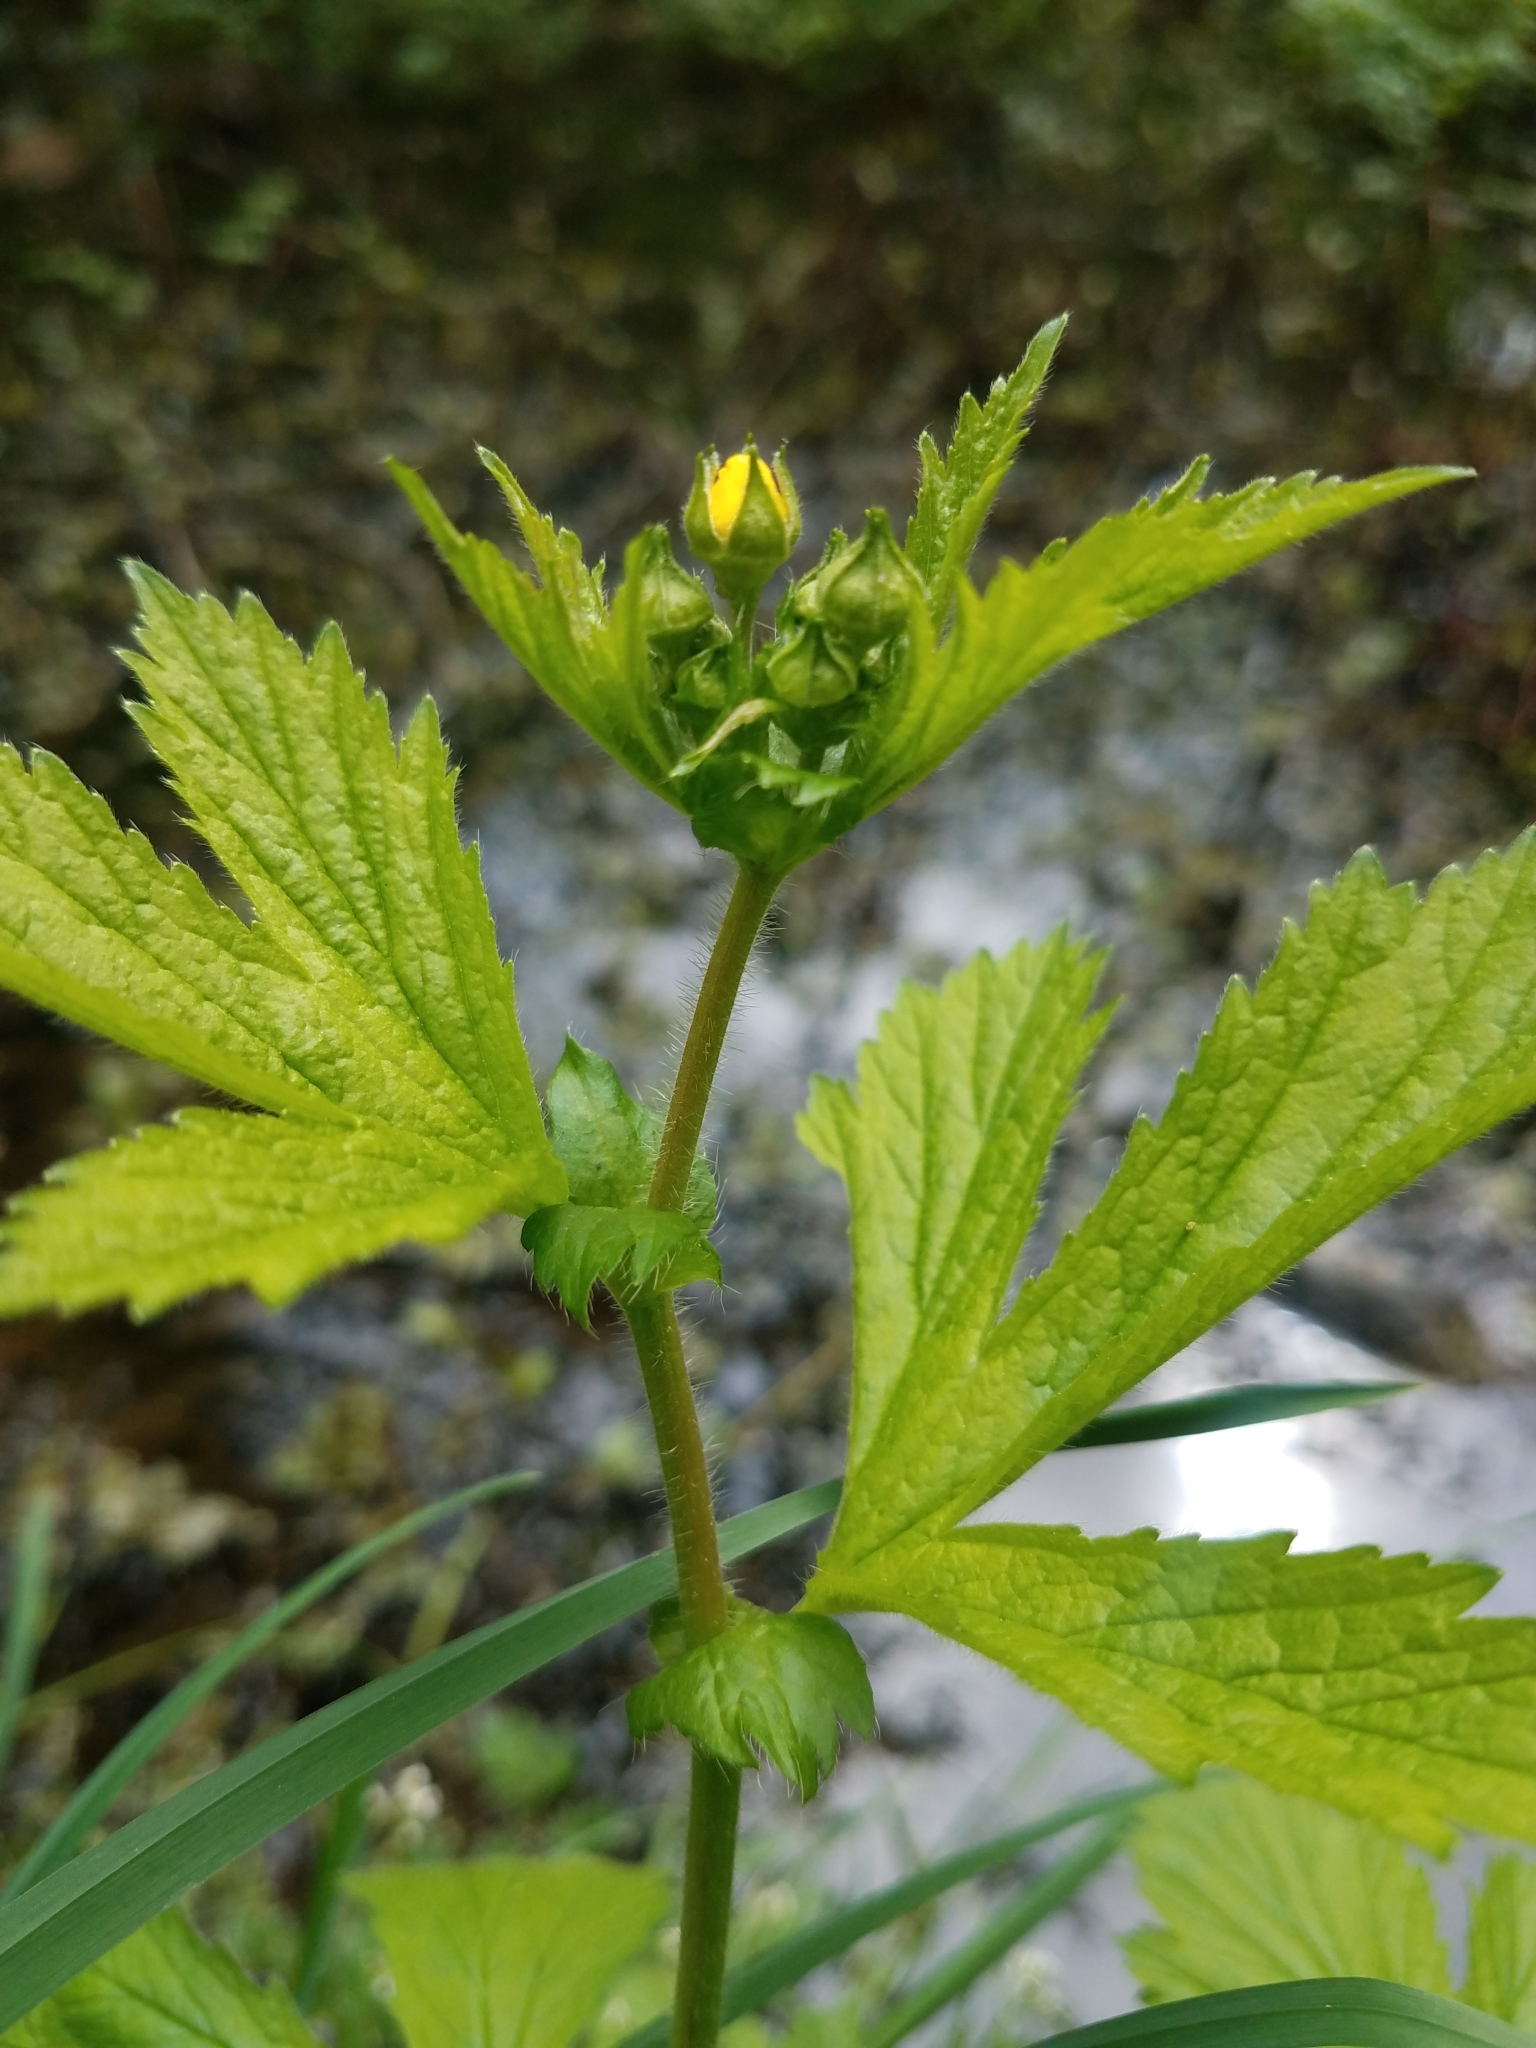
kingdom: Plantae
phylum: Tracheophyta
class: Magnoliopsida
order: Rosales
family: Rosaceae
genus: Geum
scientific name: Geum macrophyllum
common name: Large-leaved avens
